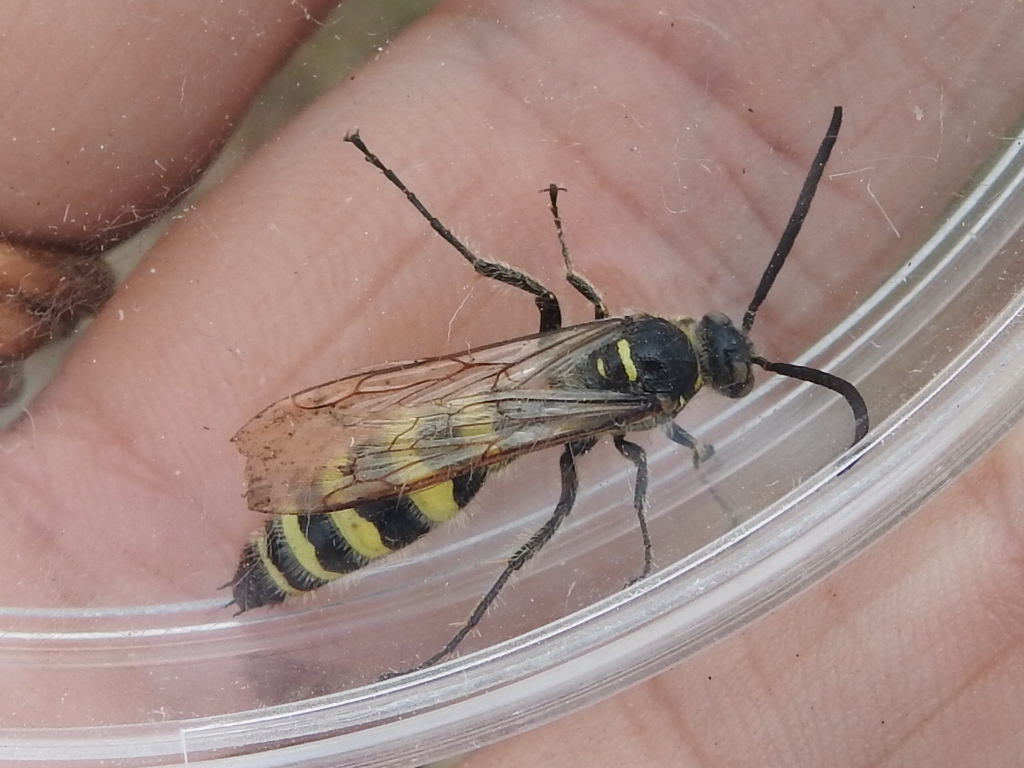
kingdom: Animalia
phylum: Arthropoda
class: Insecta
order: Hymenoptera
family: Scoliidae
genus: Dielis
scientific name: Dielis
